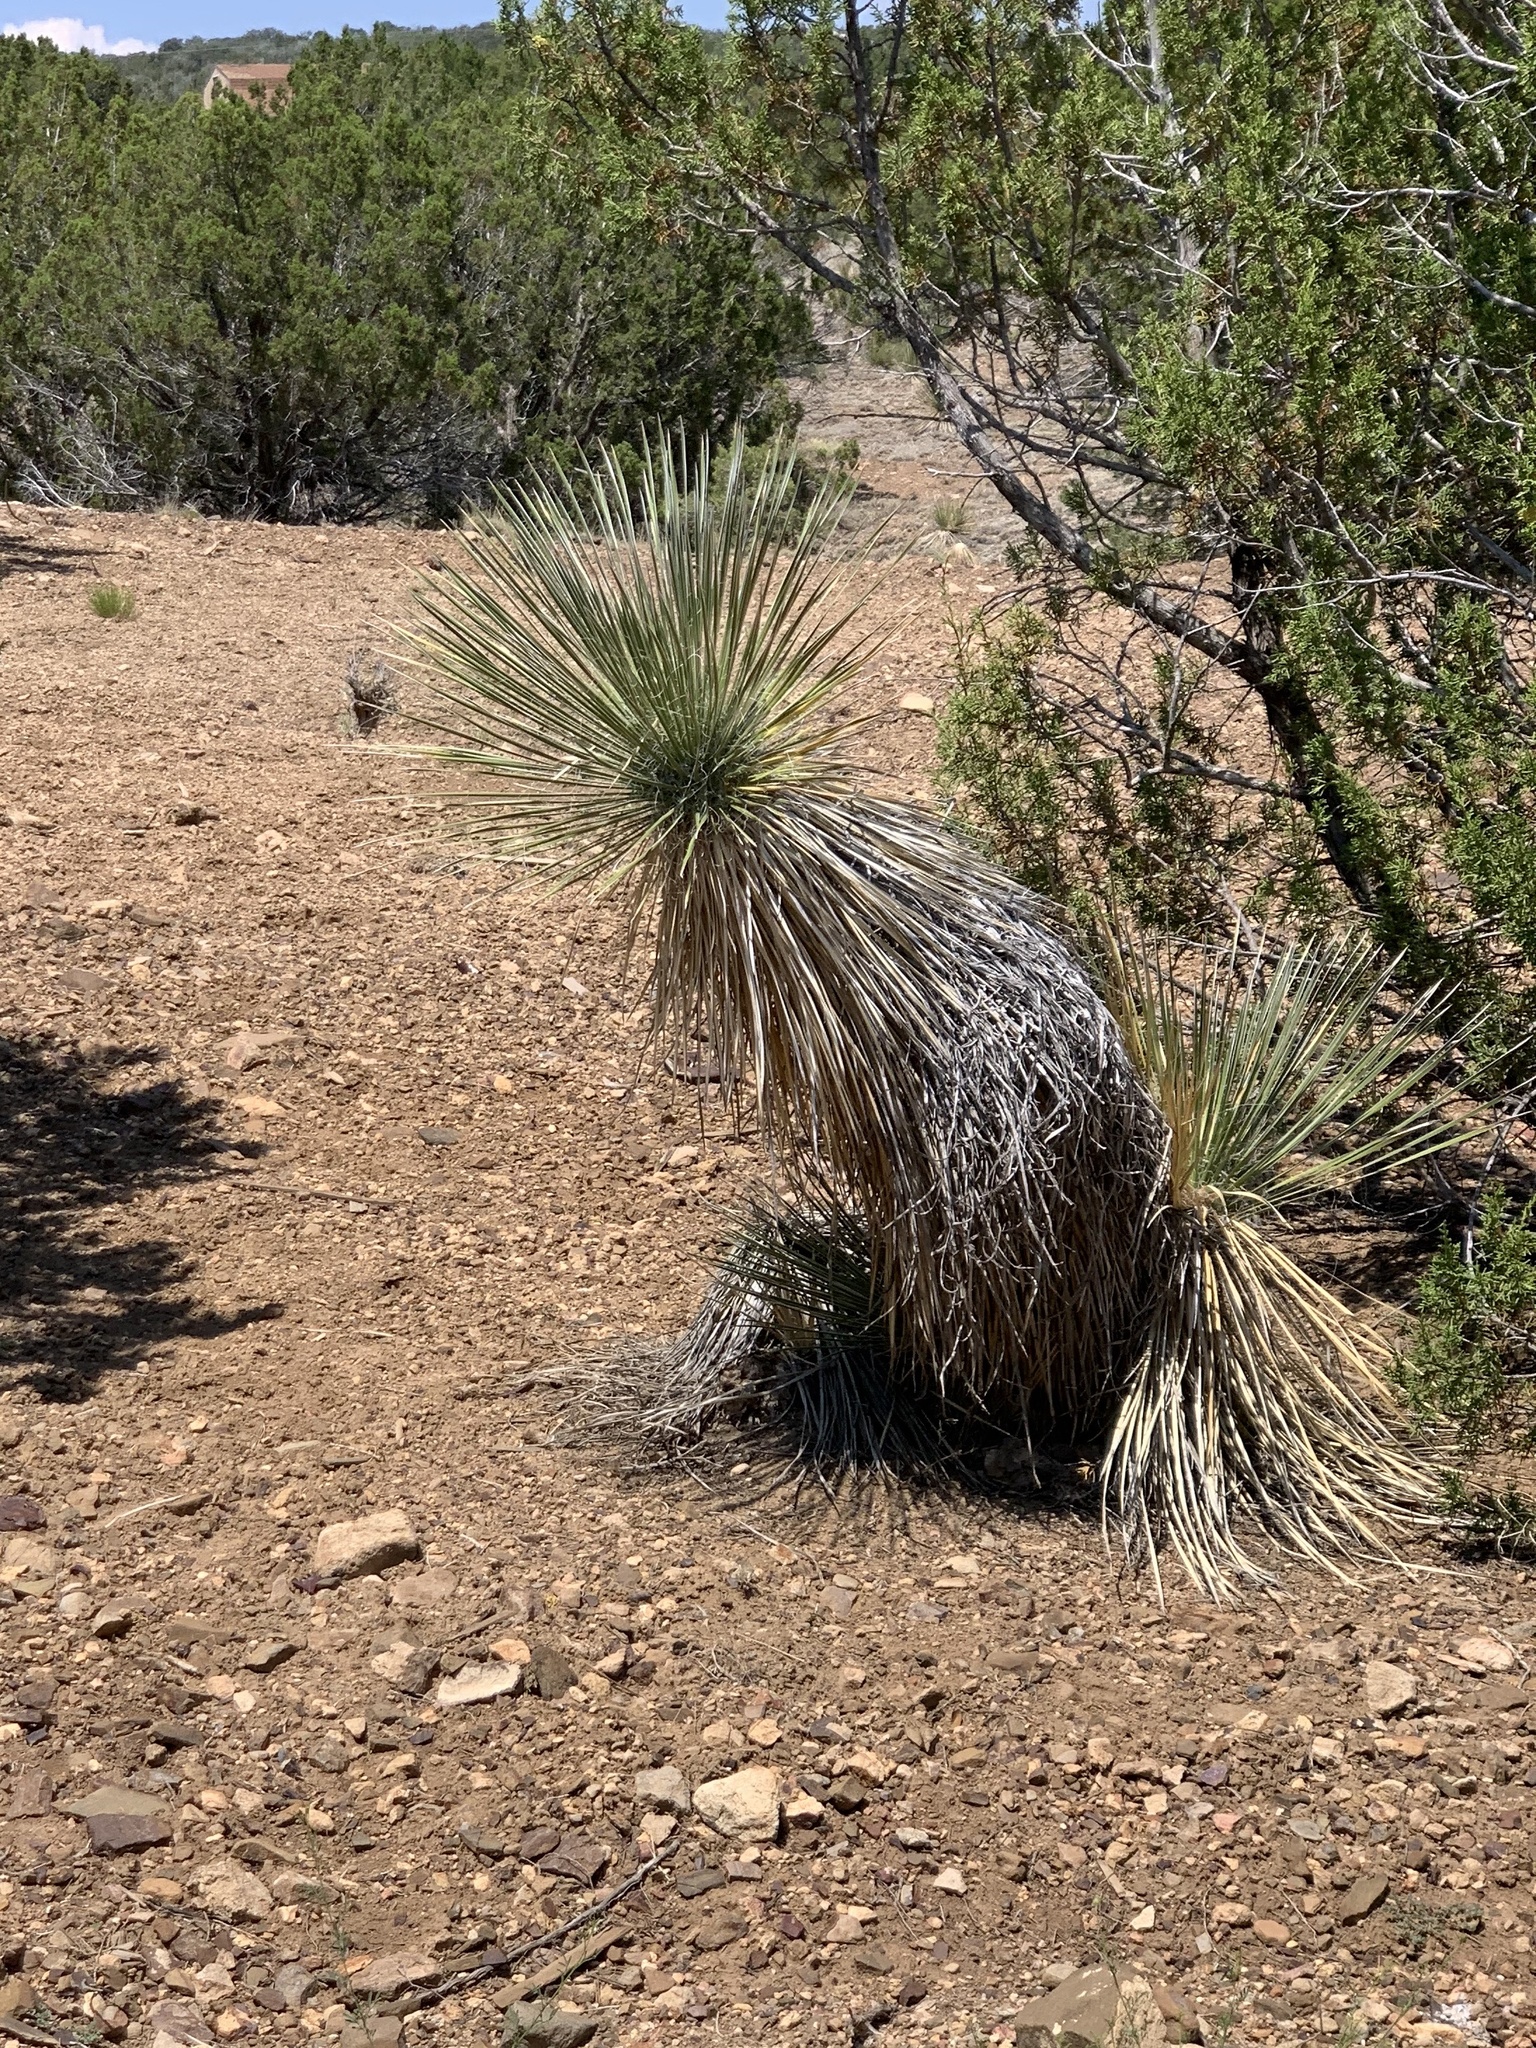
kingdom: Plantae
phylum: Tracheophyta
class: Liliopsida
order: Asparagales
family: Asparagaceae
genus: Yucca
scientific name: Yucca elata
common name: Palmella
